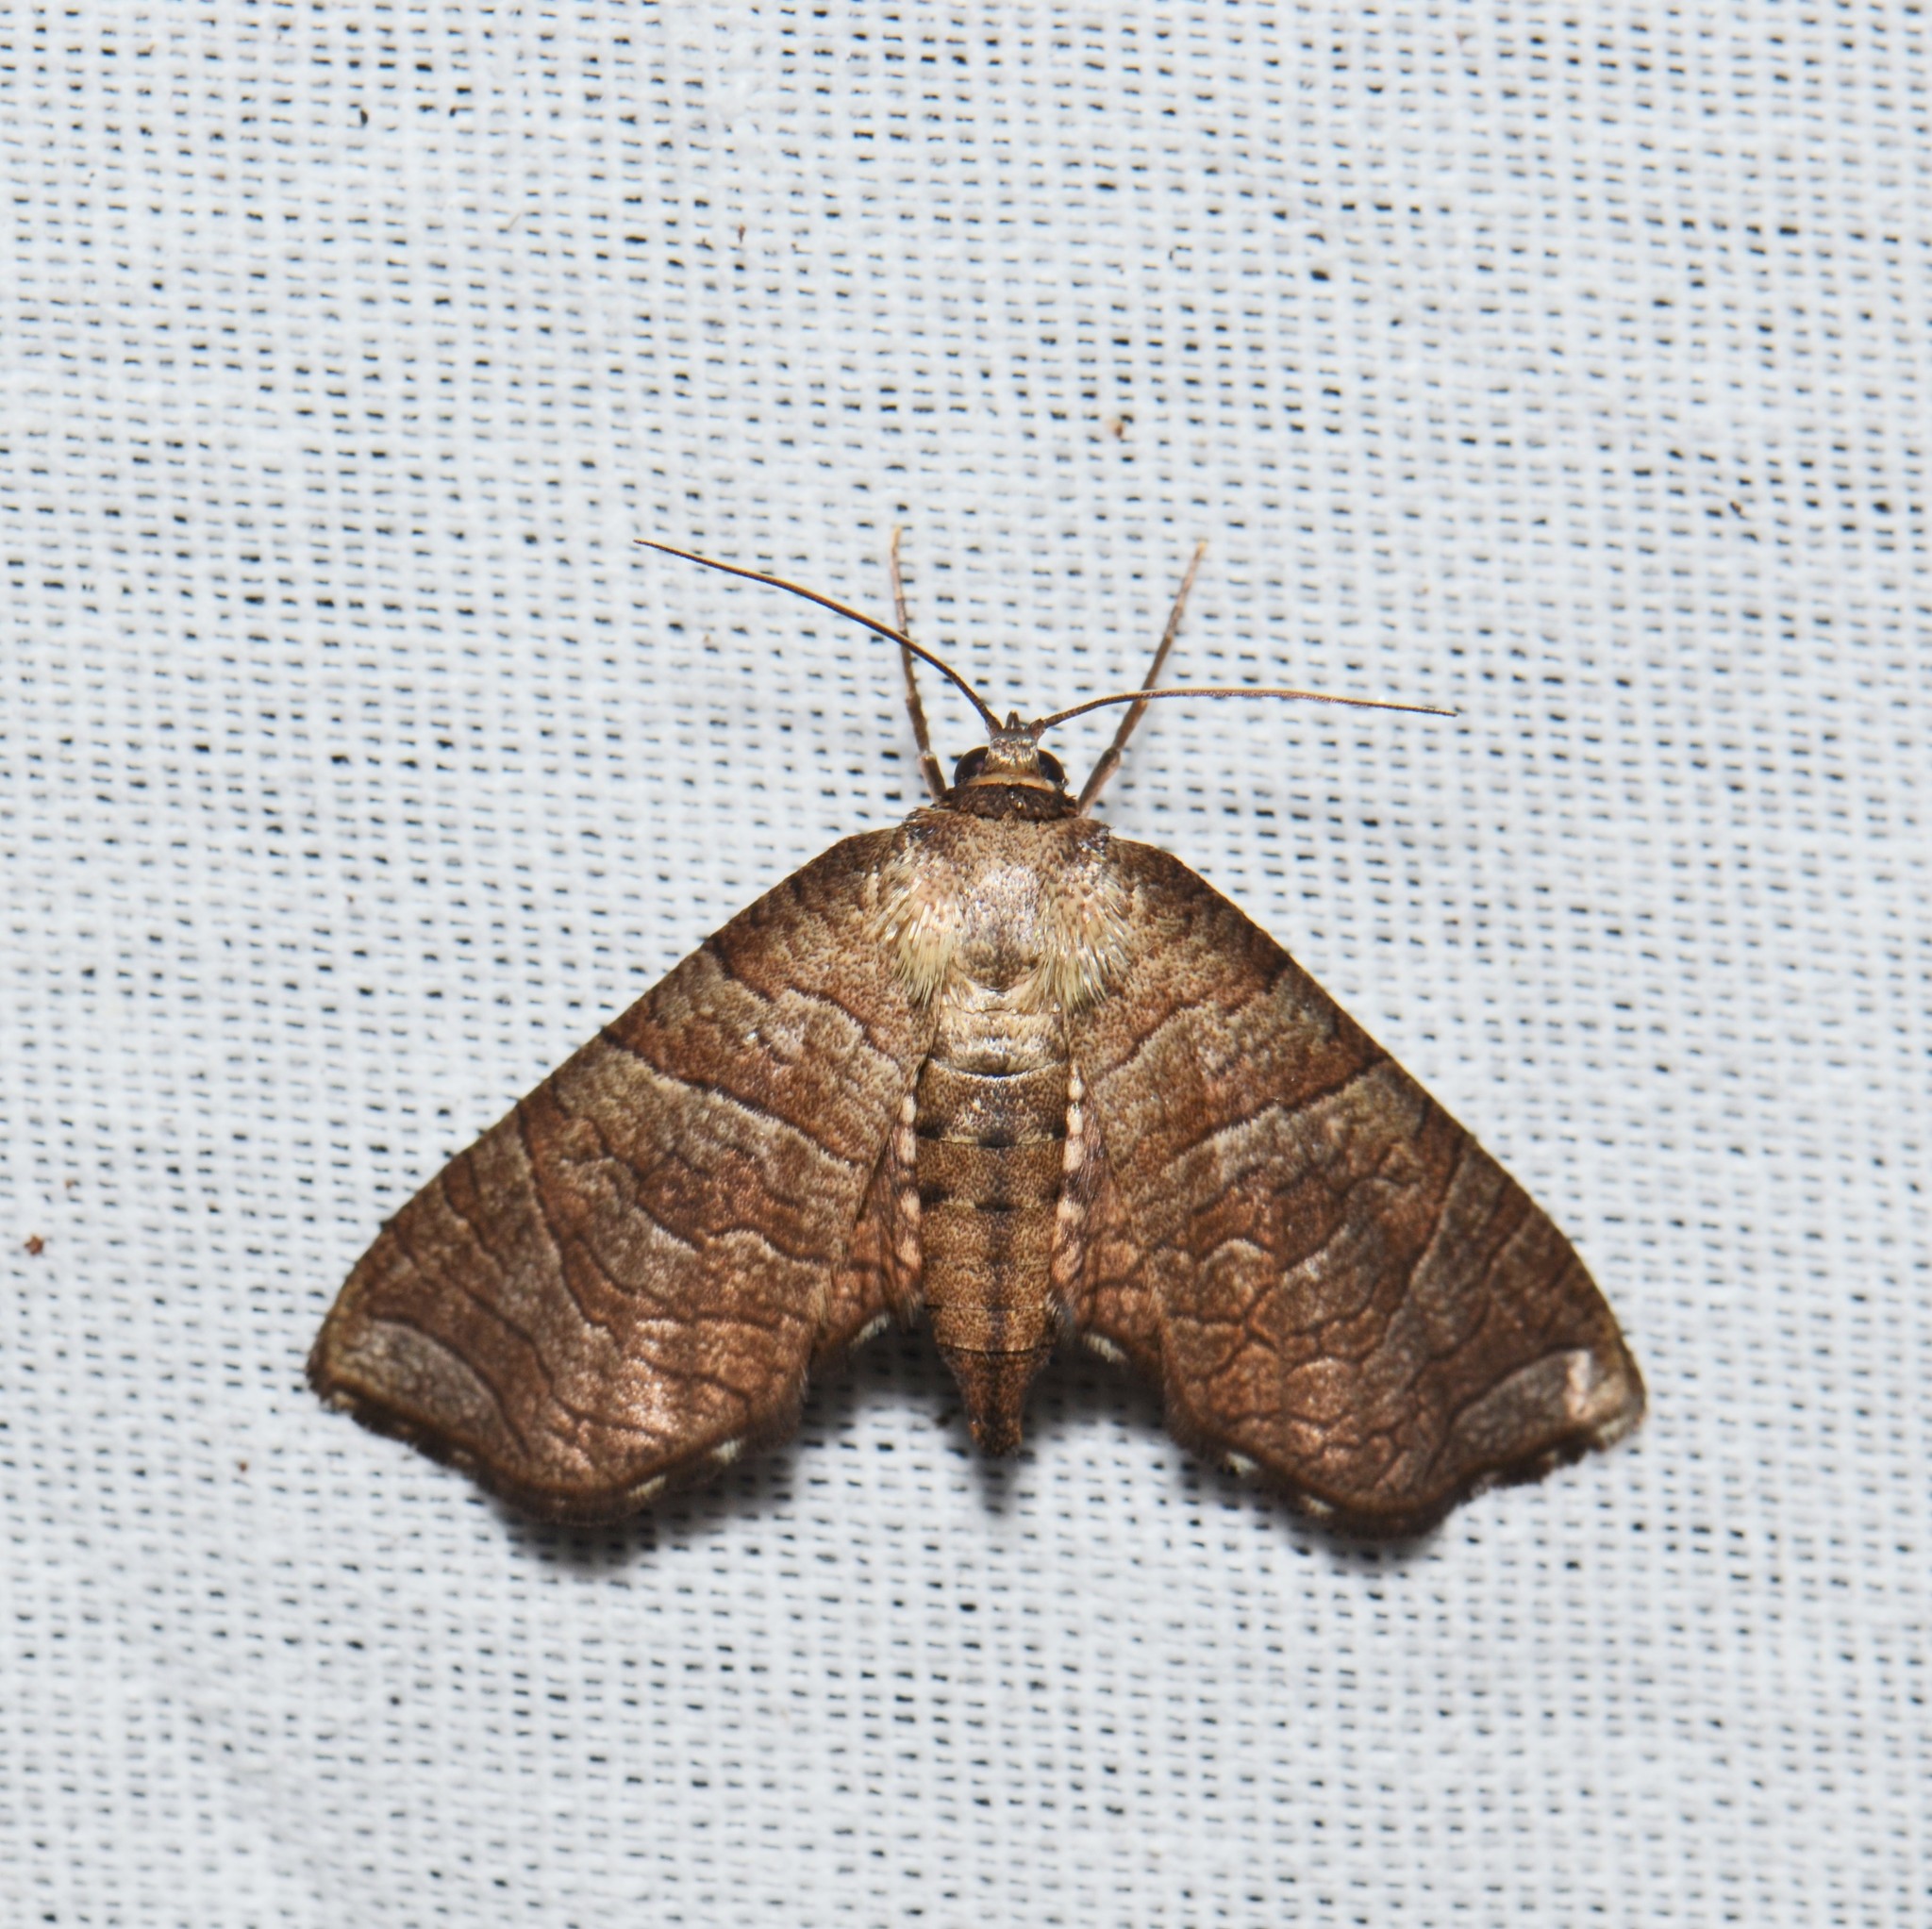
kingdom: Animalia
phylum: Arthropoda
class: Insecta
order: Lepidoptera
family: Thyrididae
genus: Mellea
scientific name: Mellea
